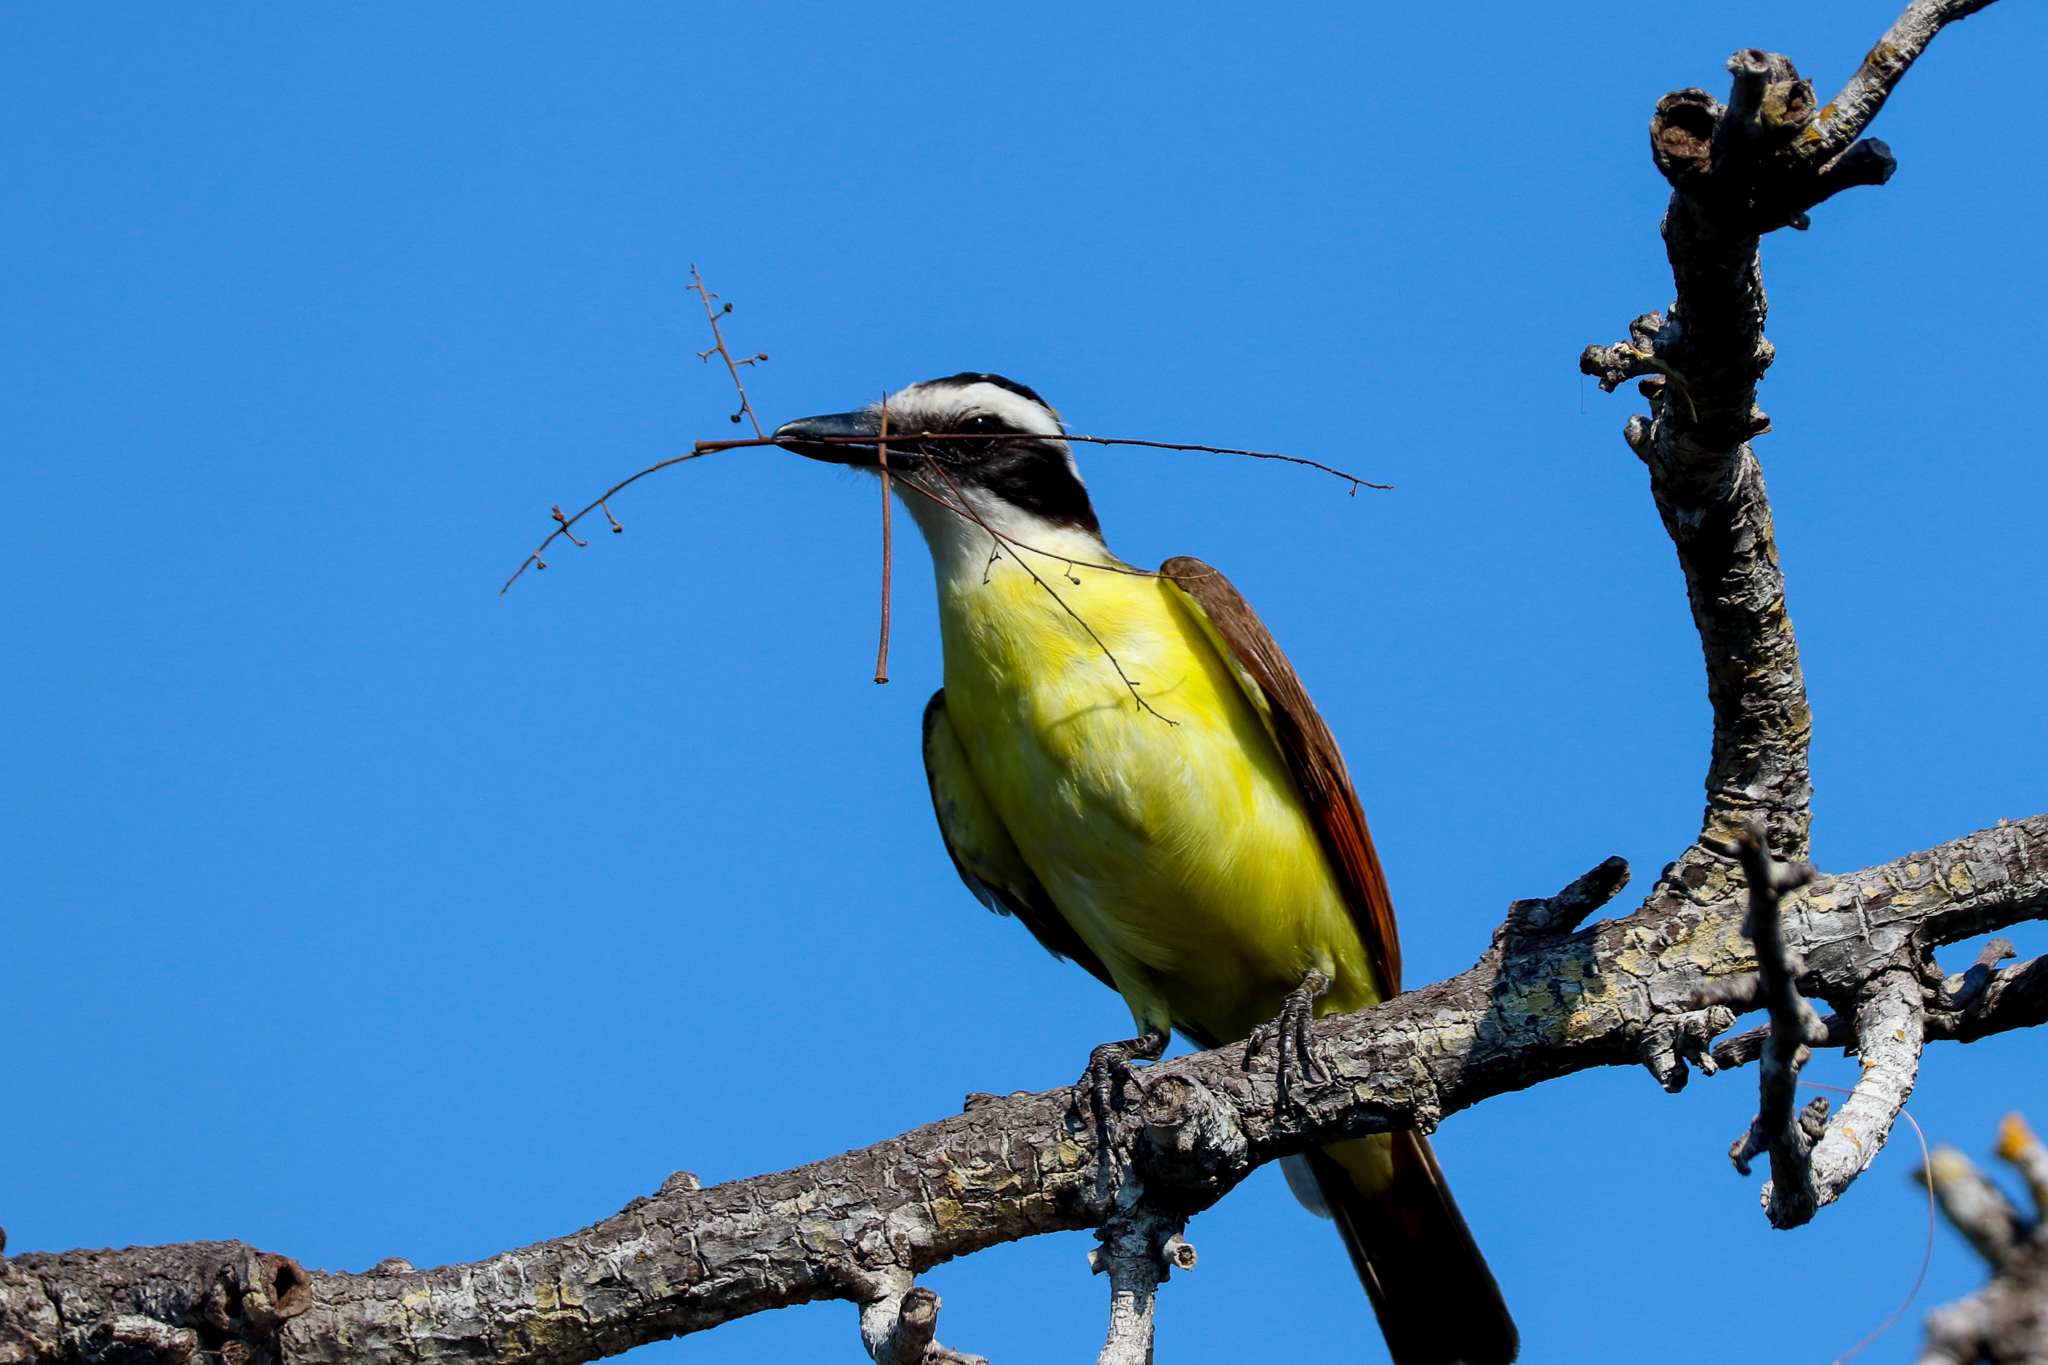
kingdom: Animalia
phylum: Chordata
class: Aves
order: Passeriformes
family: Tyrannidae
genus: Pitangus
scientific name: Pitangus sulphuratus
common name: Great kiskadee
